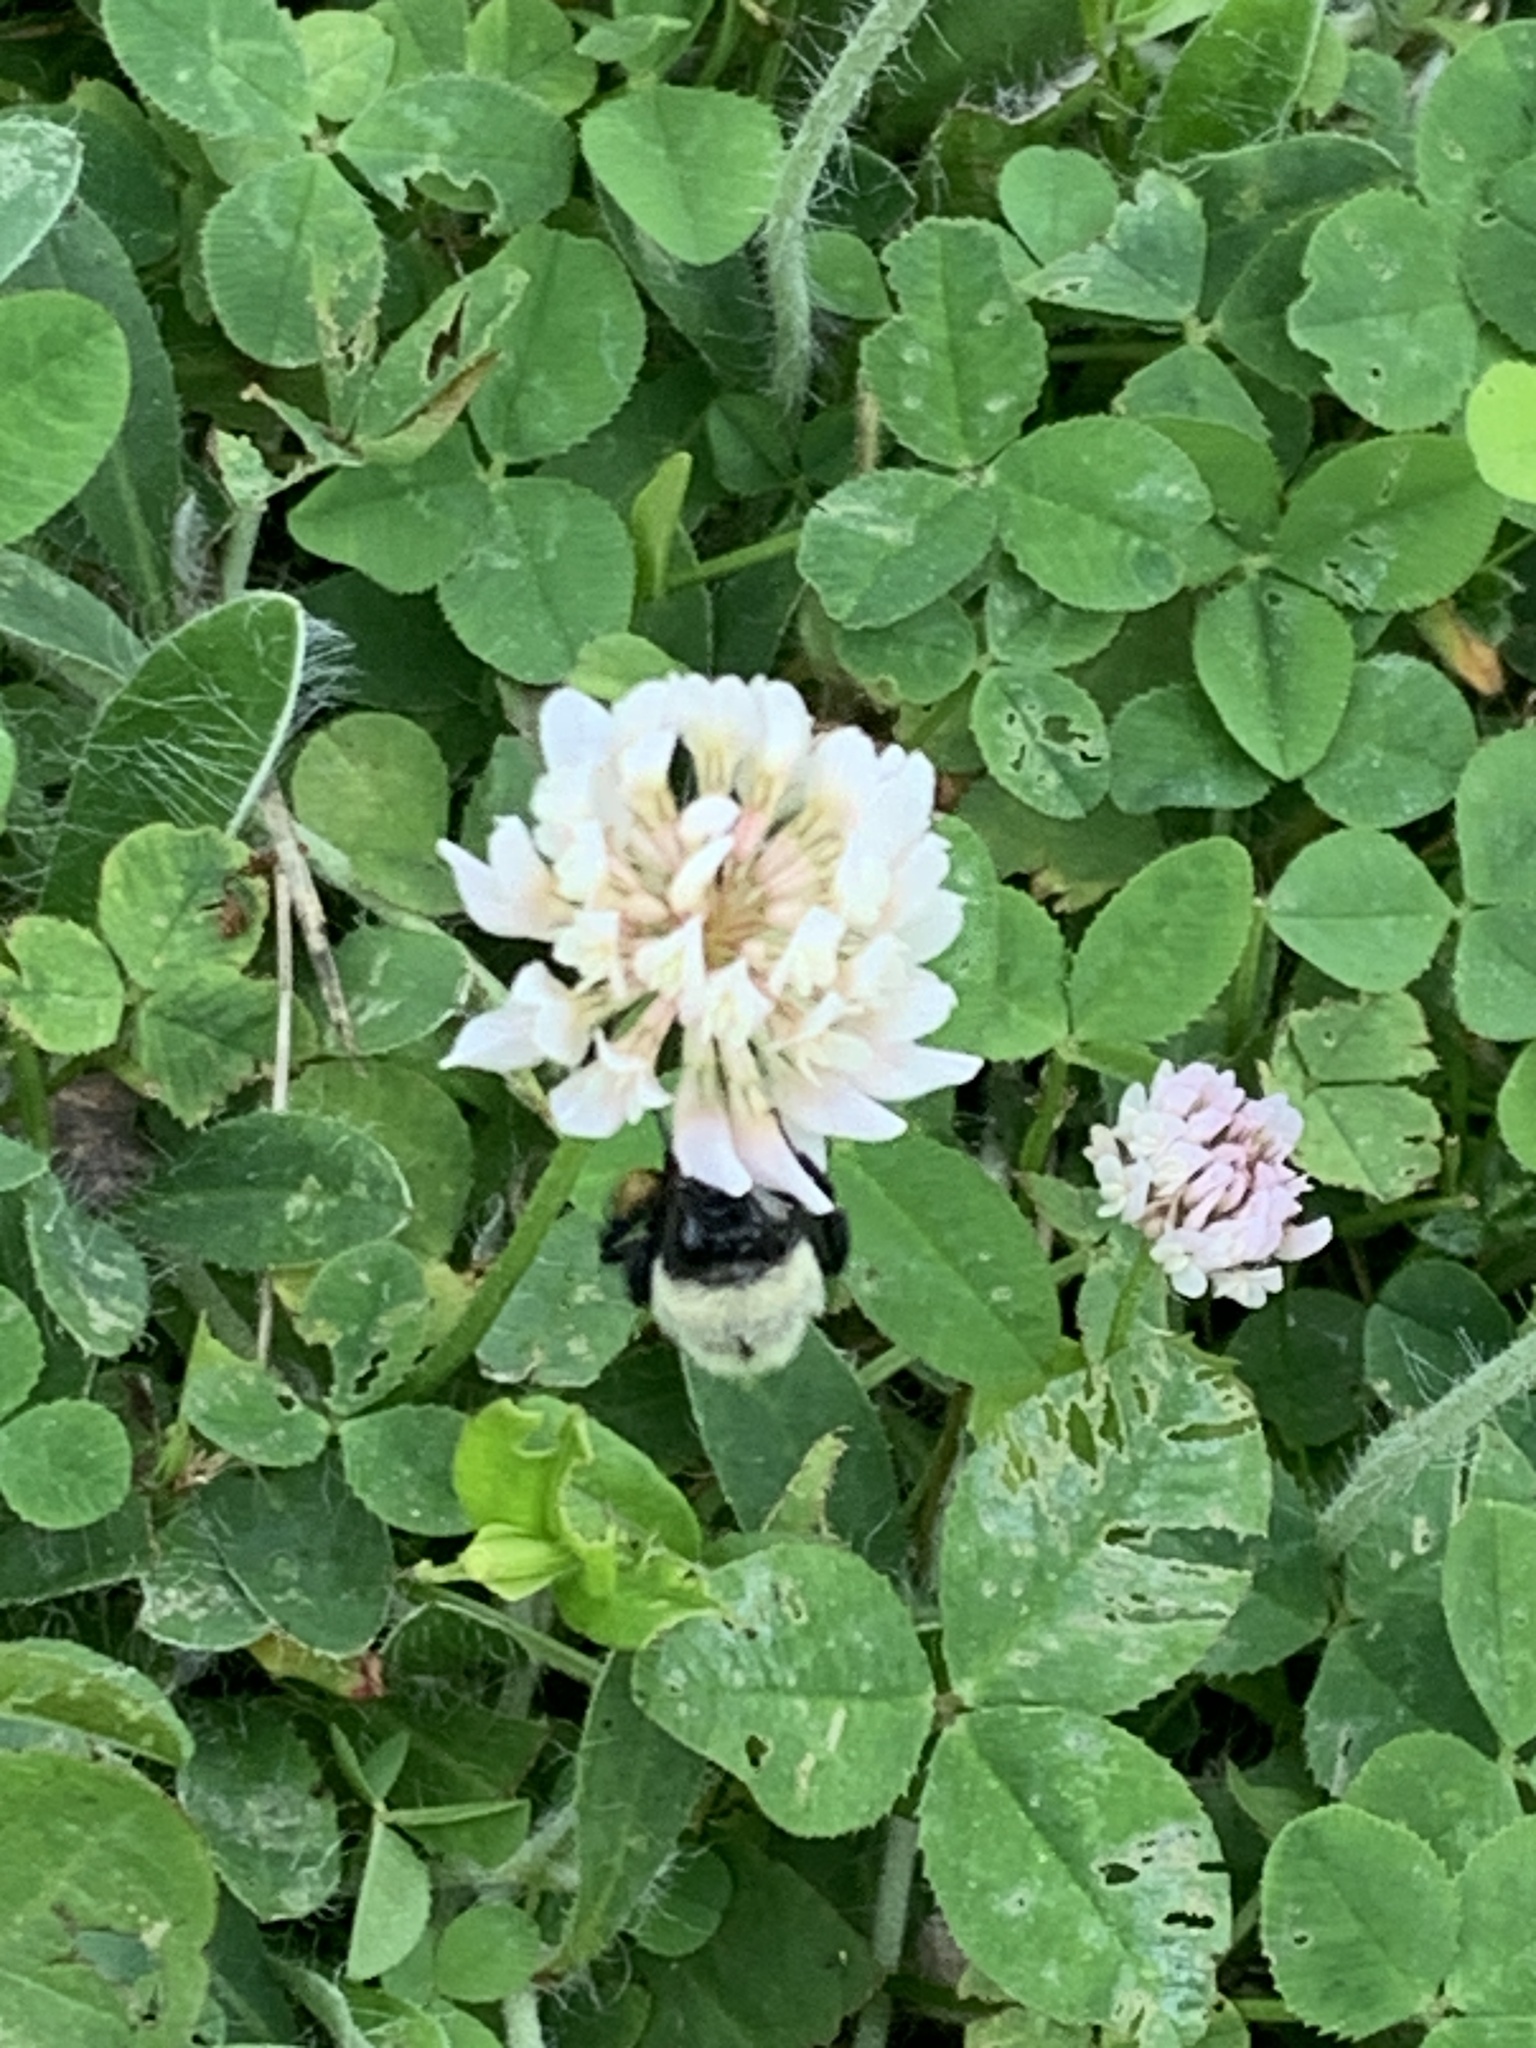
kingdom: Animalia
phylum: Arthropoda
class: Insecta
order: Hymenoptera
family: Apidae
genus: Bombus
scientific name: Bombus impatiens
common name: Common eastern bumble bee
